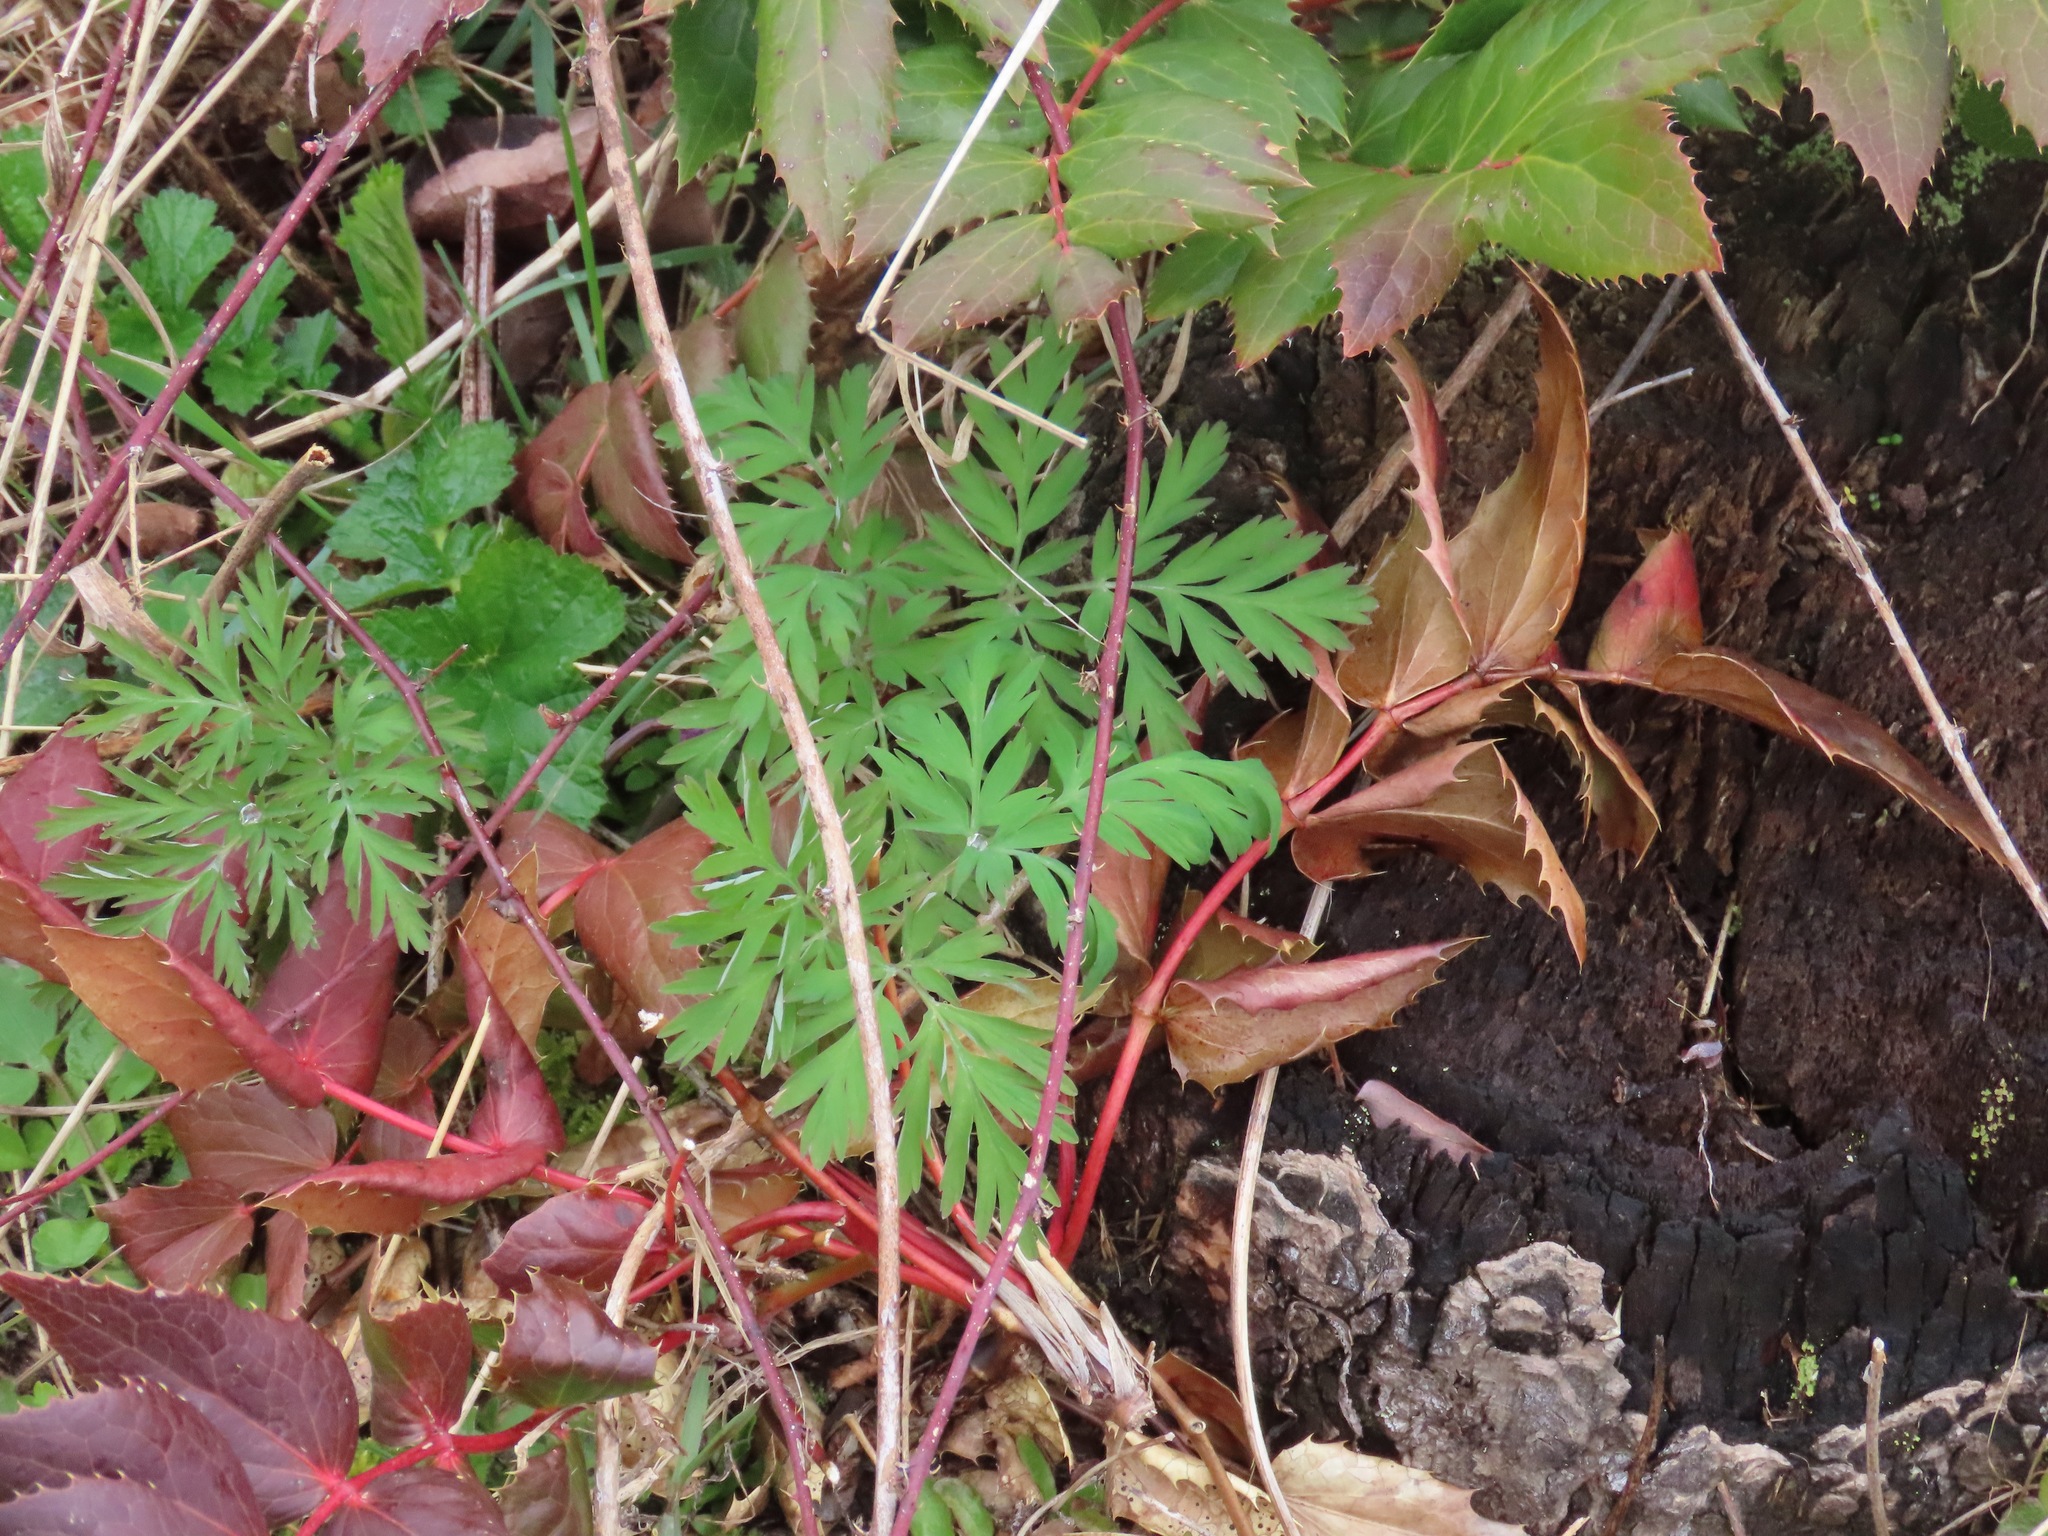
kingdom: Plantae
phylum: Tracheophyta
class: Magnoliopsida
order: Ranunculales
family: Papaveraceae
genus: Dicentra
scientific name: Dicentra formosa
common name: Bleeding-heart
